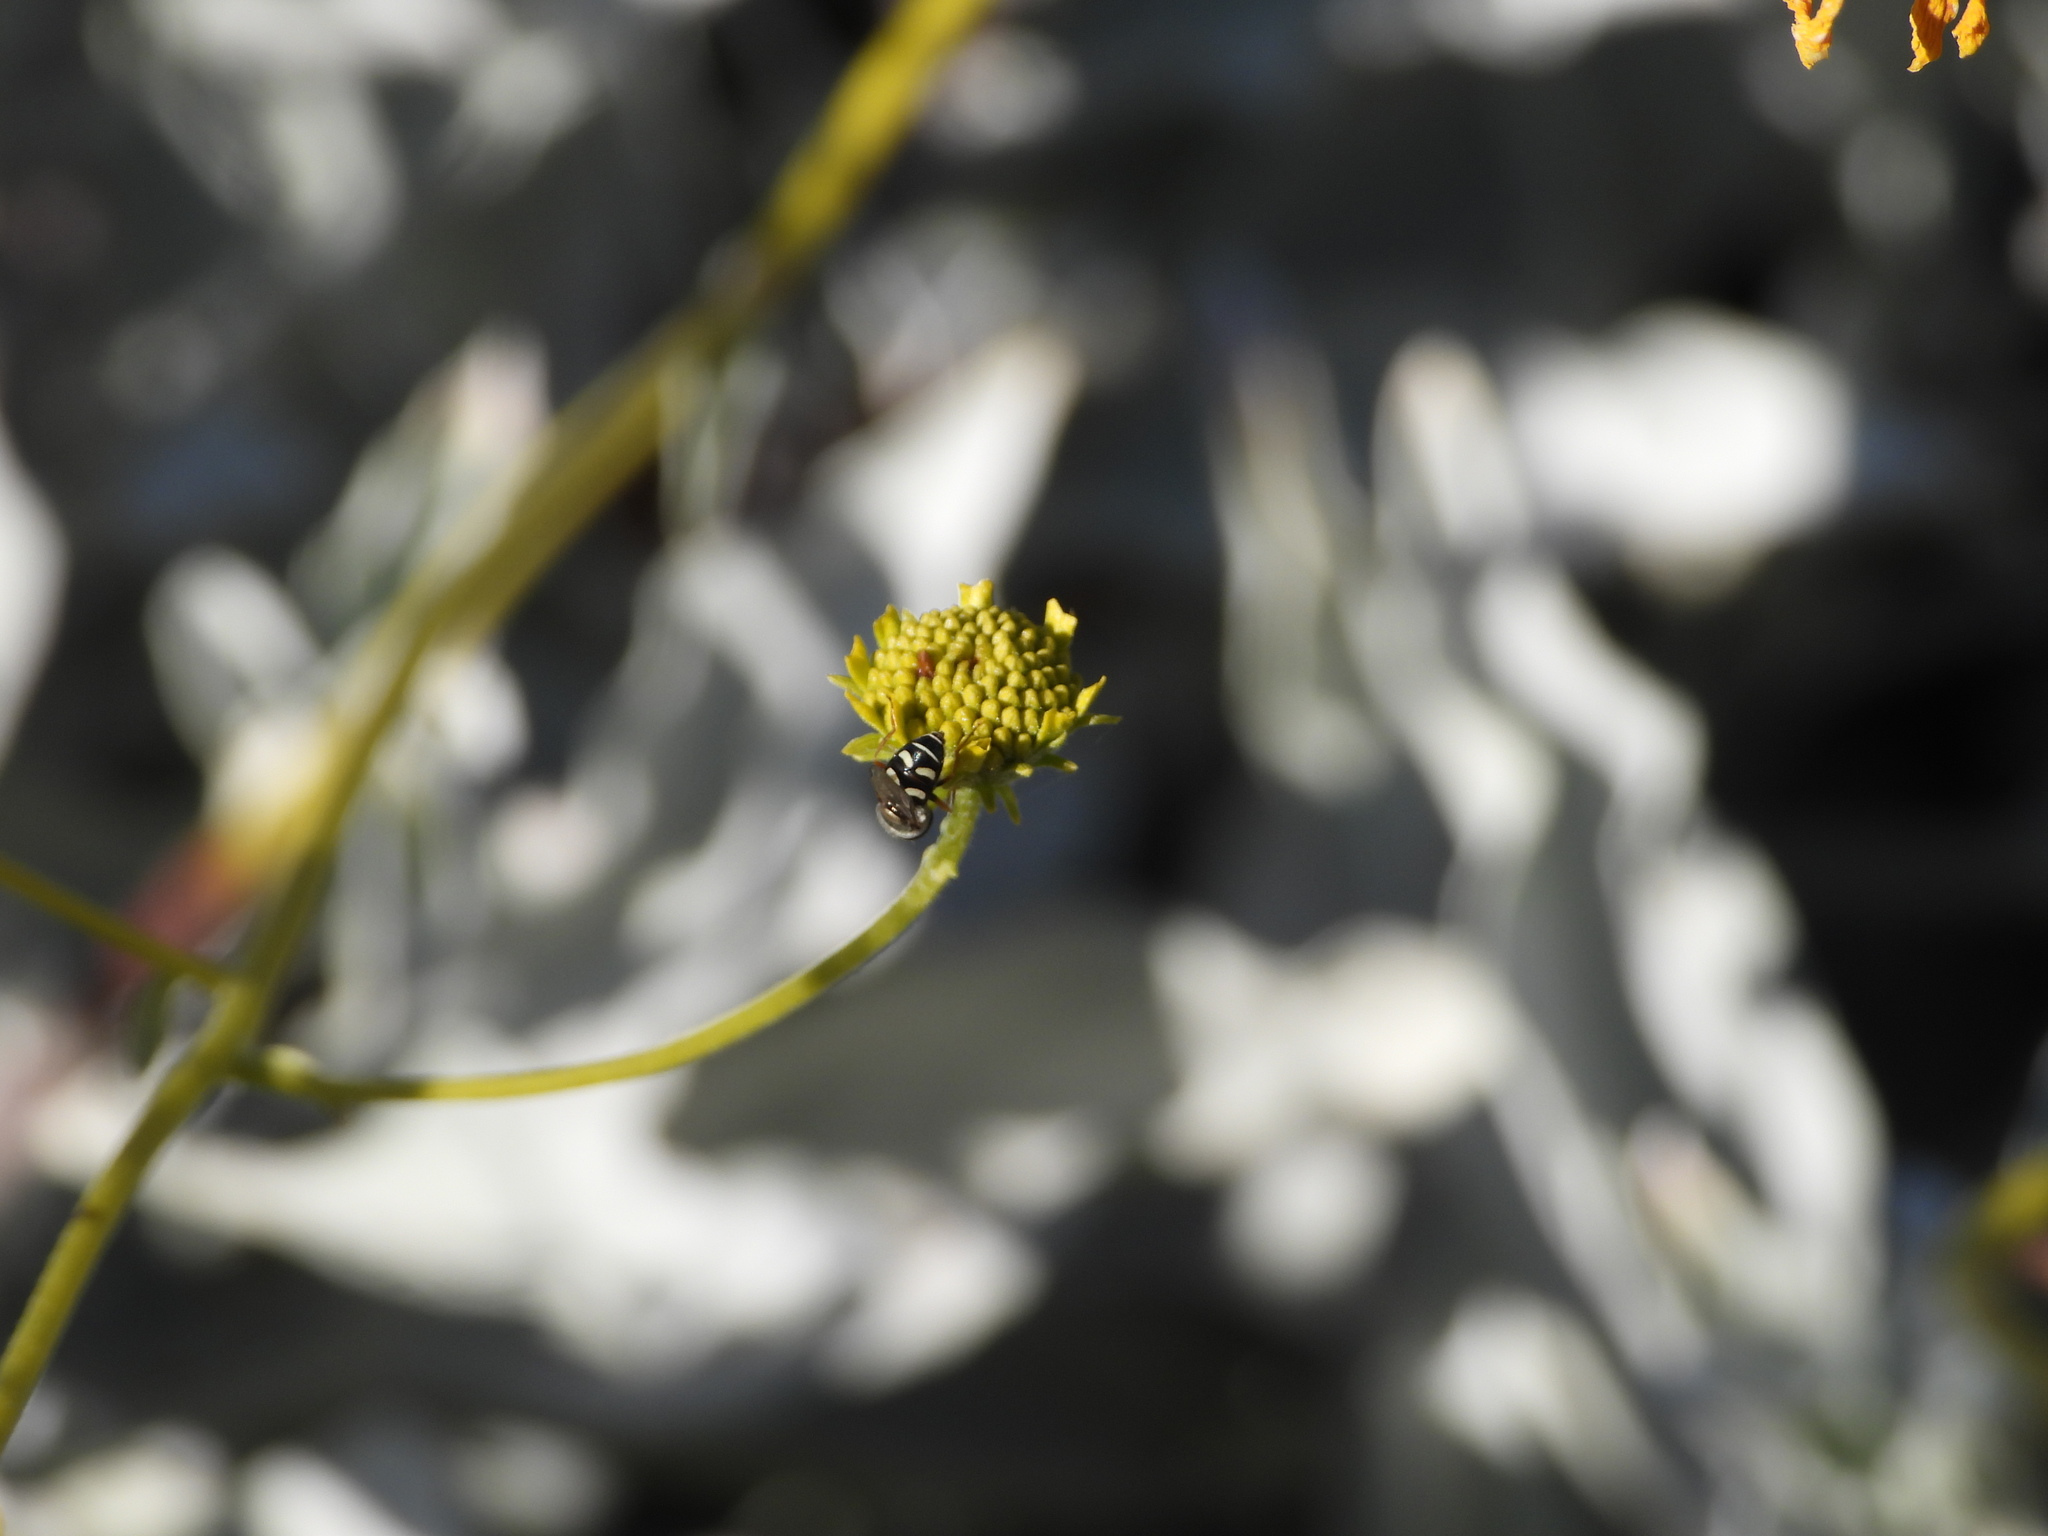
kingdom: Animalia
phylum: Arthropoda
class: Insecta
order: Diptera
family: Syrphidae
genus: Eupeodes
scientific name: Eupeodes volucris
